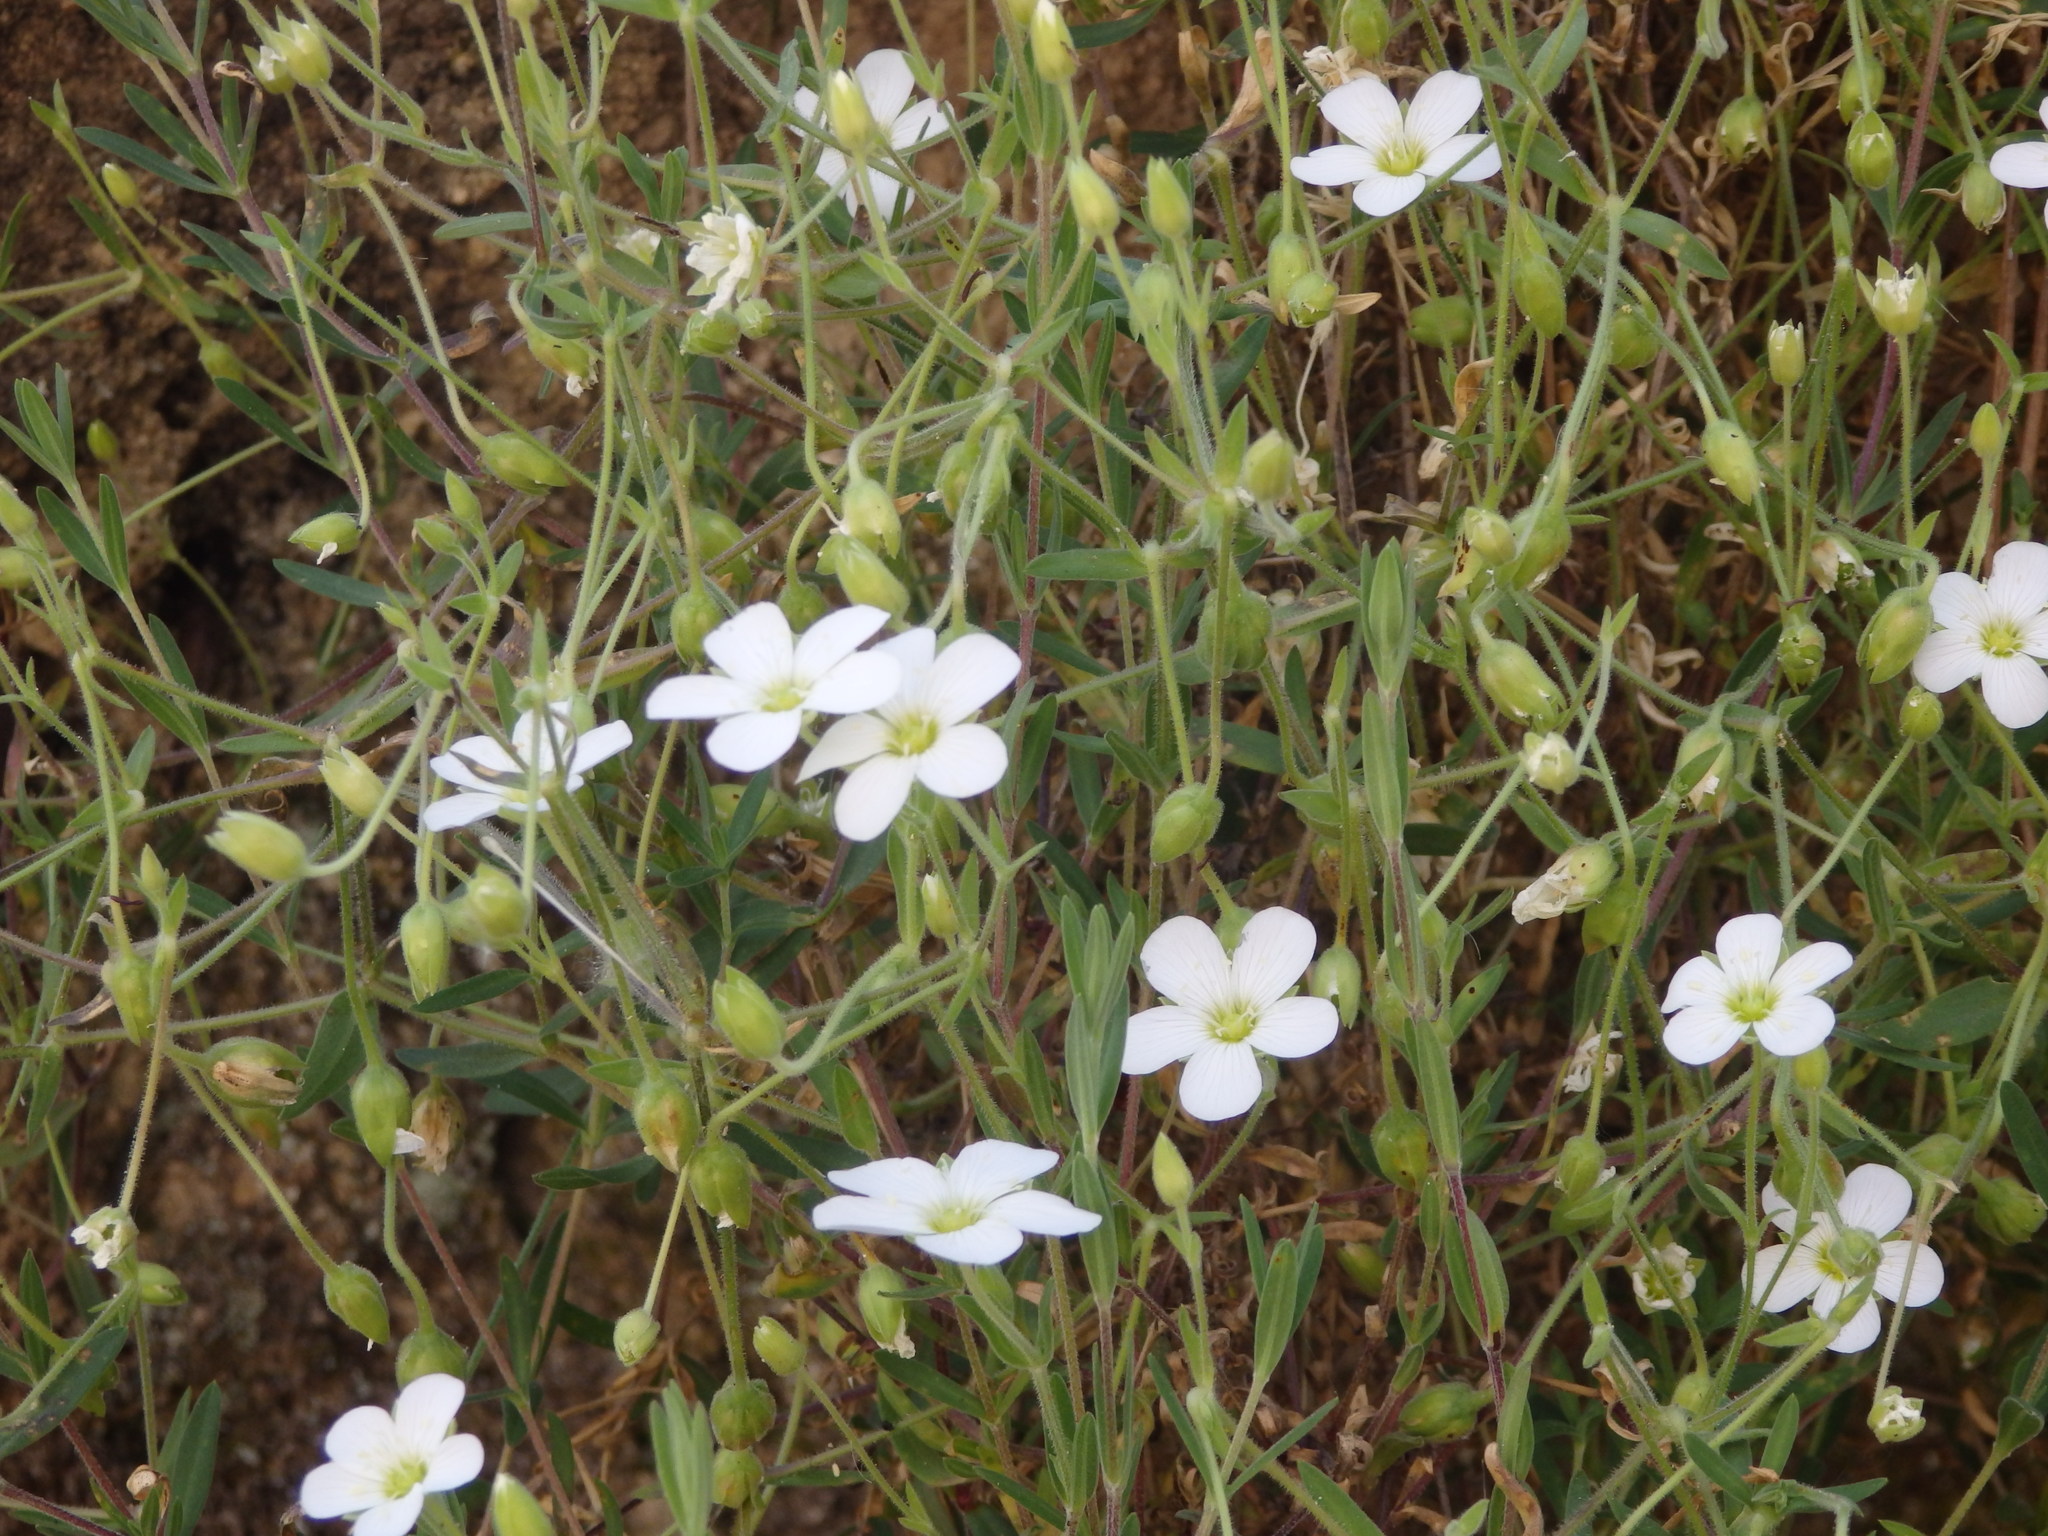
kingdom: Plantae
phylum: Tracheophyta
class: Magnoliopsida
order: Caryophyllales
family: Caryophyllaceae
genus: Arenaria
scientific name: Arenaria montana
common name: Mountain sandwort
